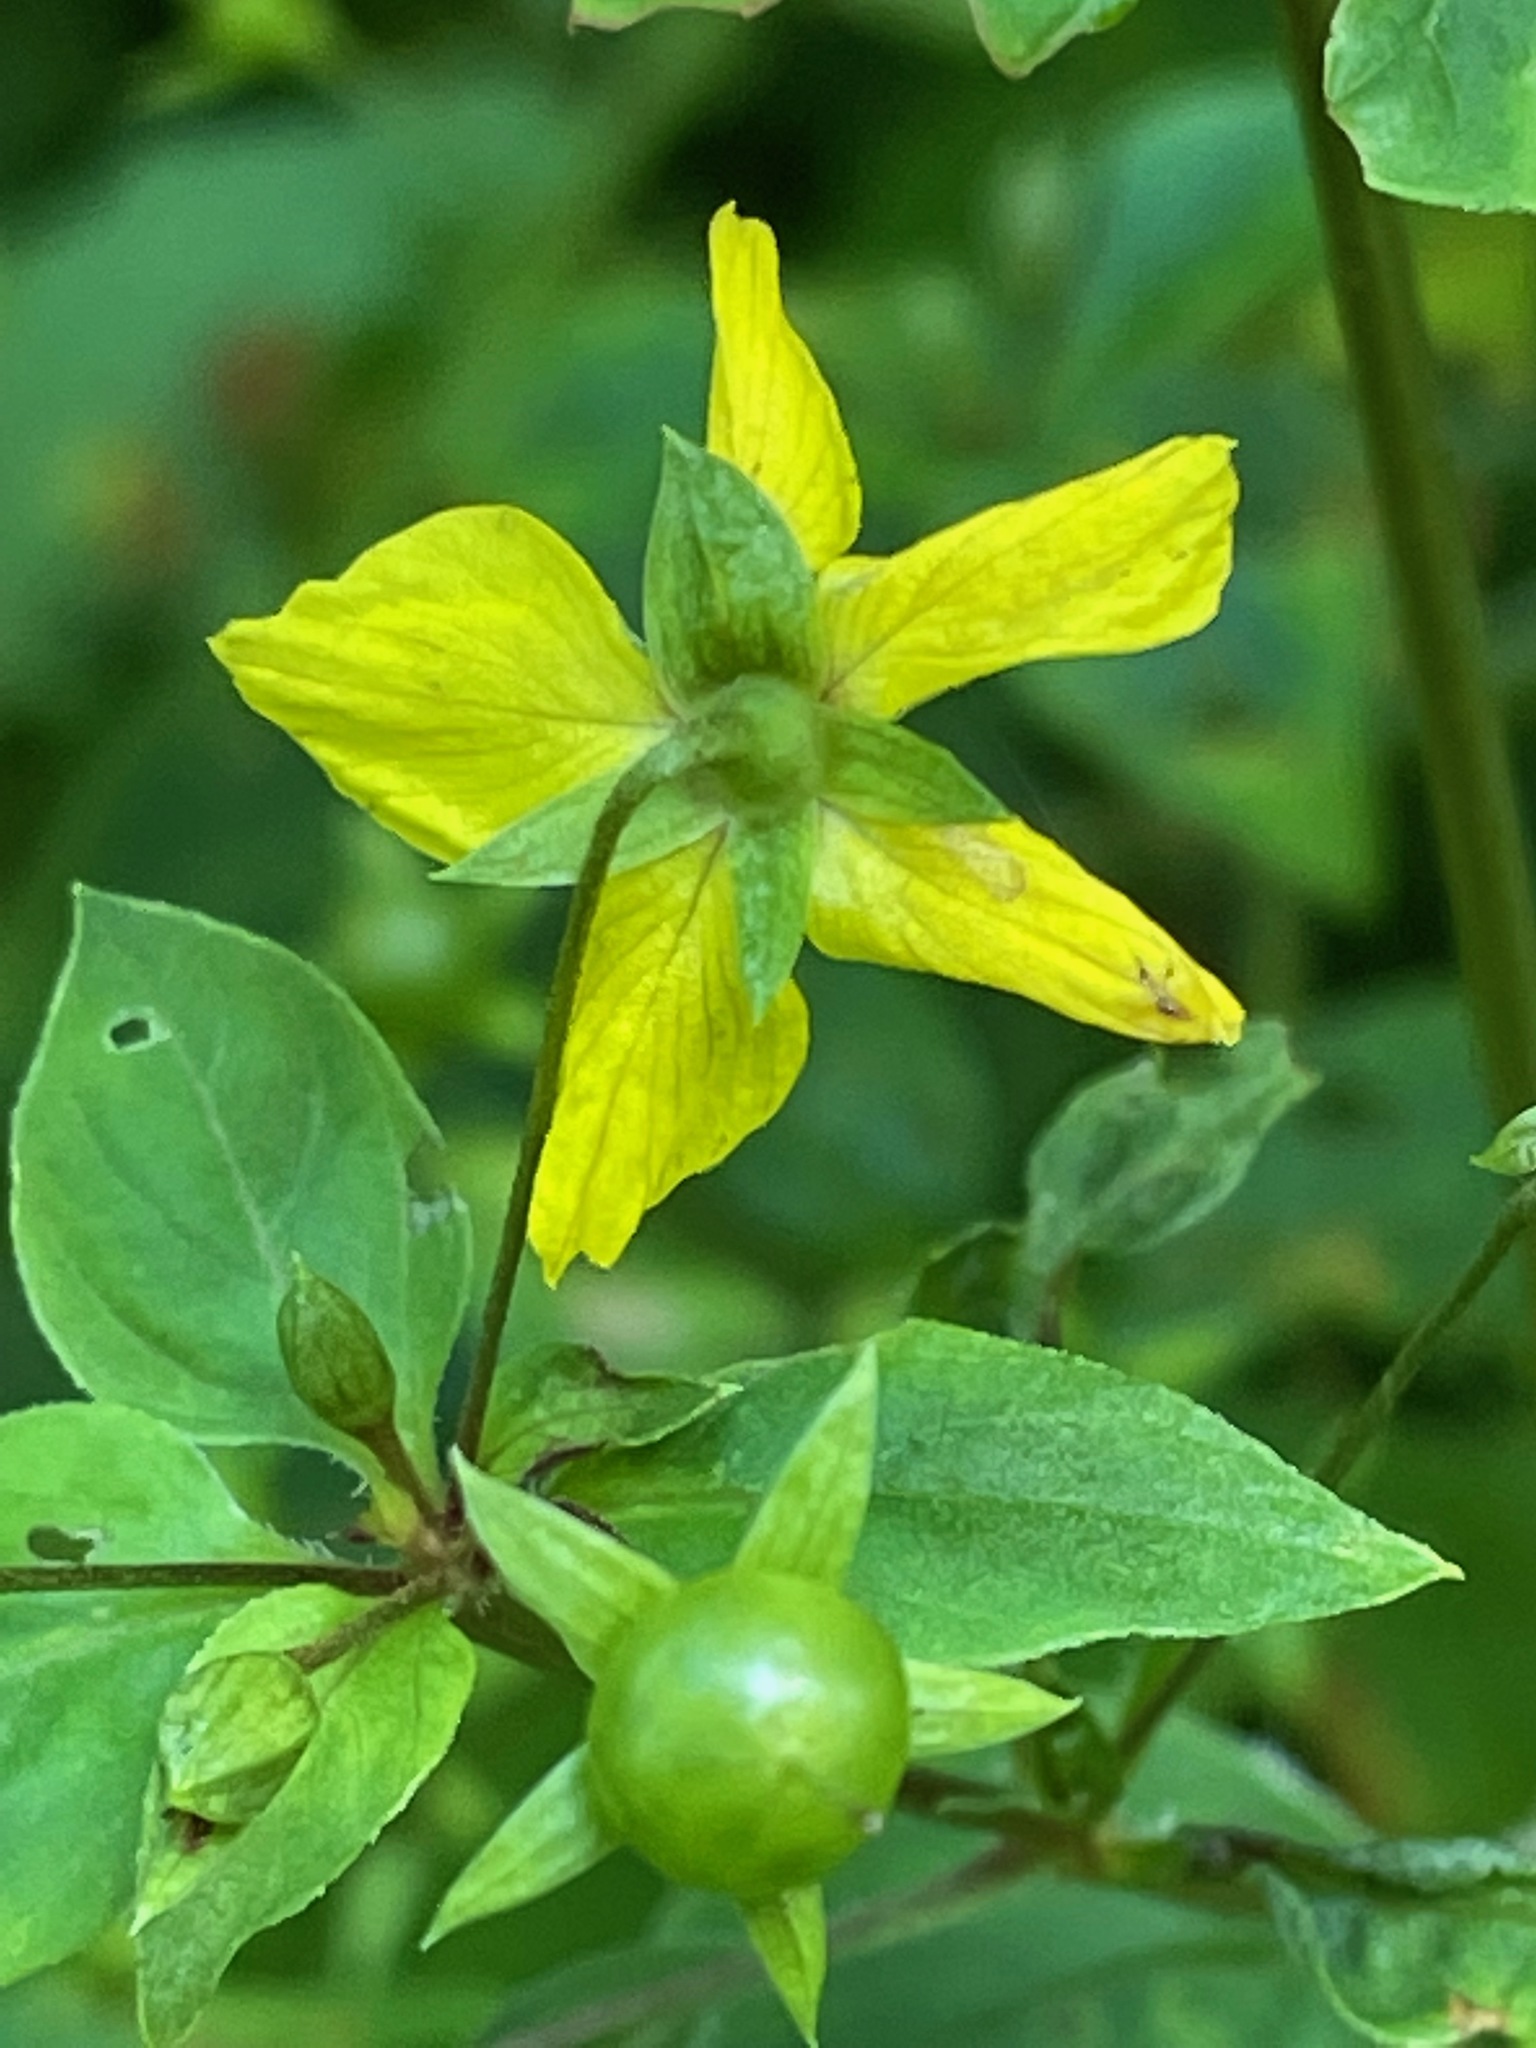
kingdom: Plantae
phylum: Tracheophyta
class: Magnoliopsida
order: Ericales
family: Primulaceae
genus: Lysimachia
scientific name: Lysimachia ciliata
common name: Fringed loosestrife
